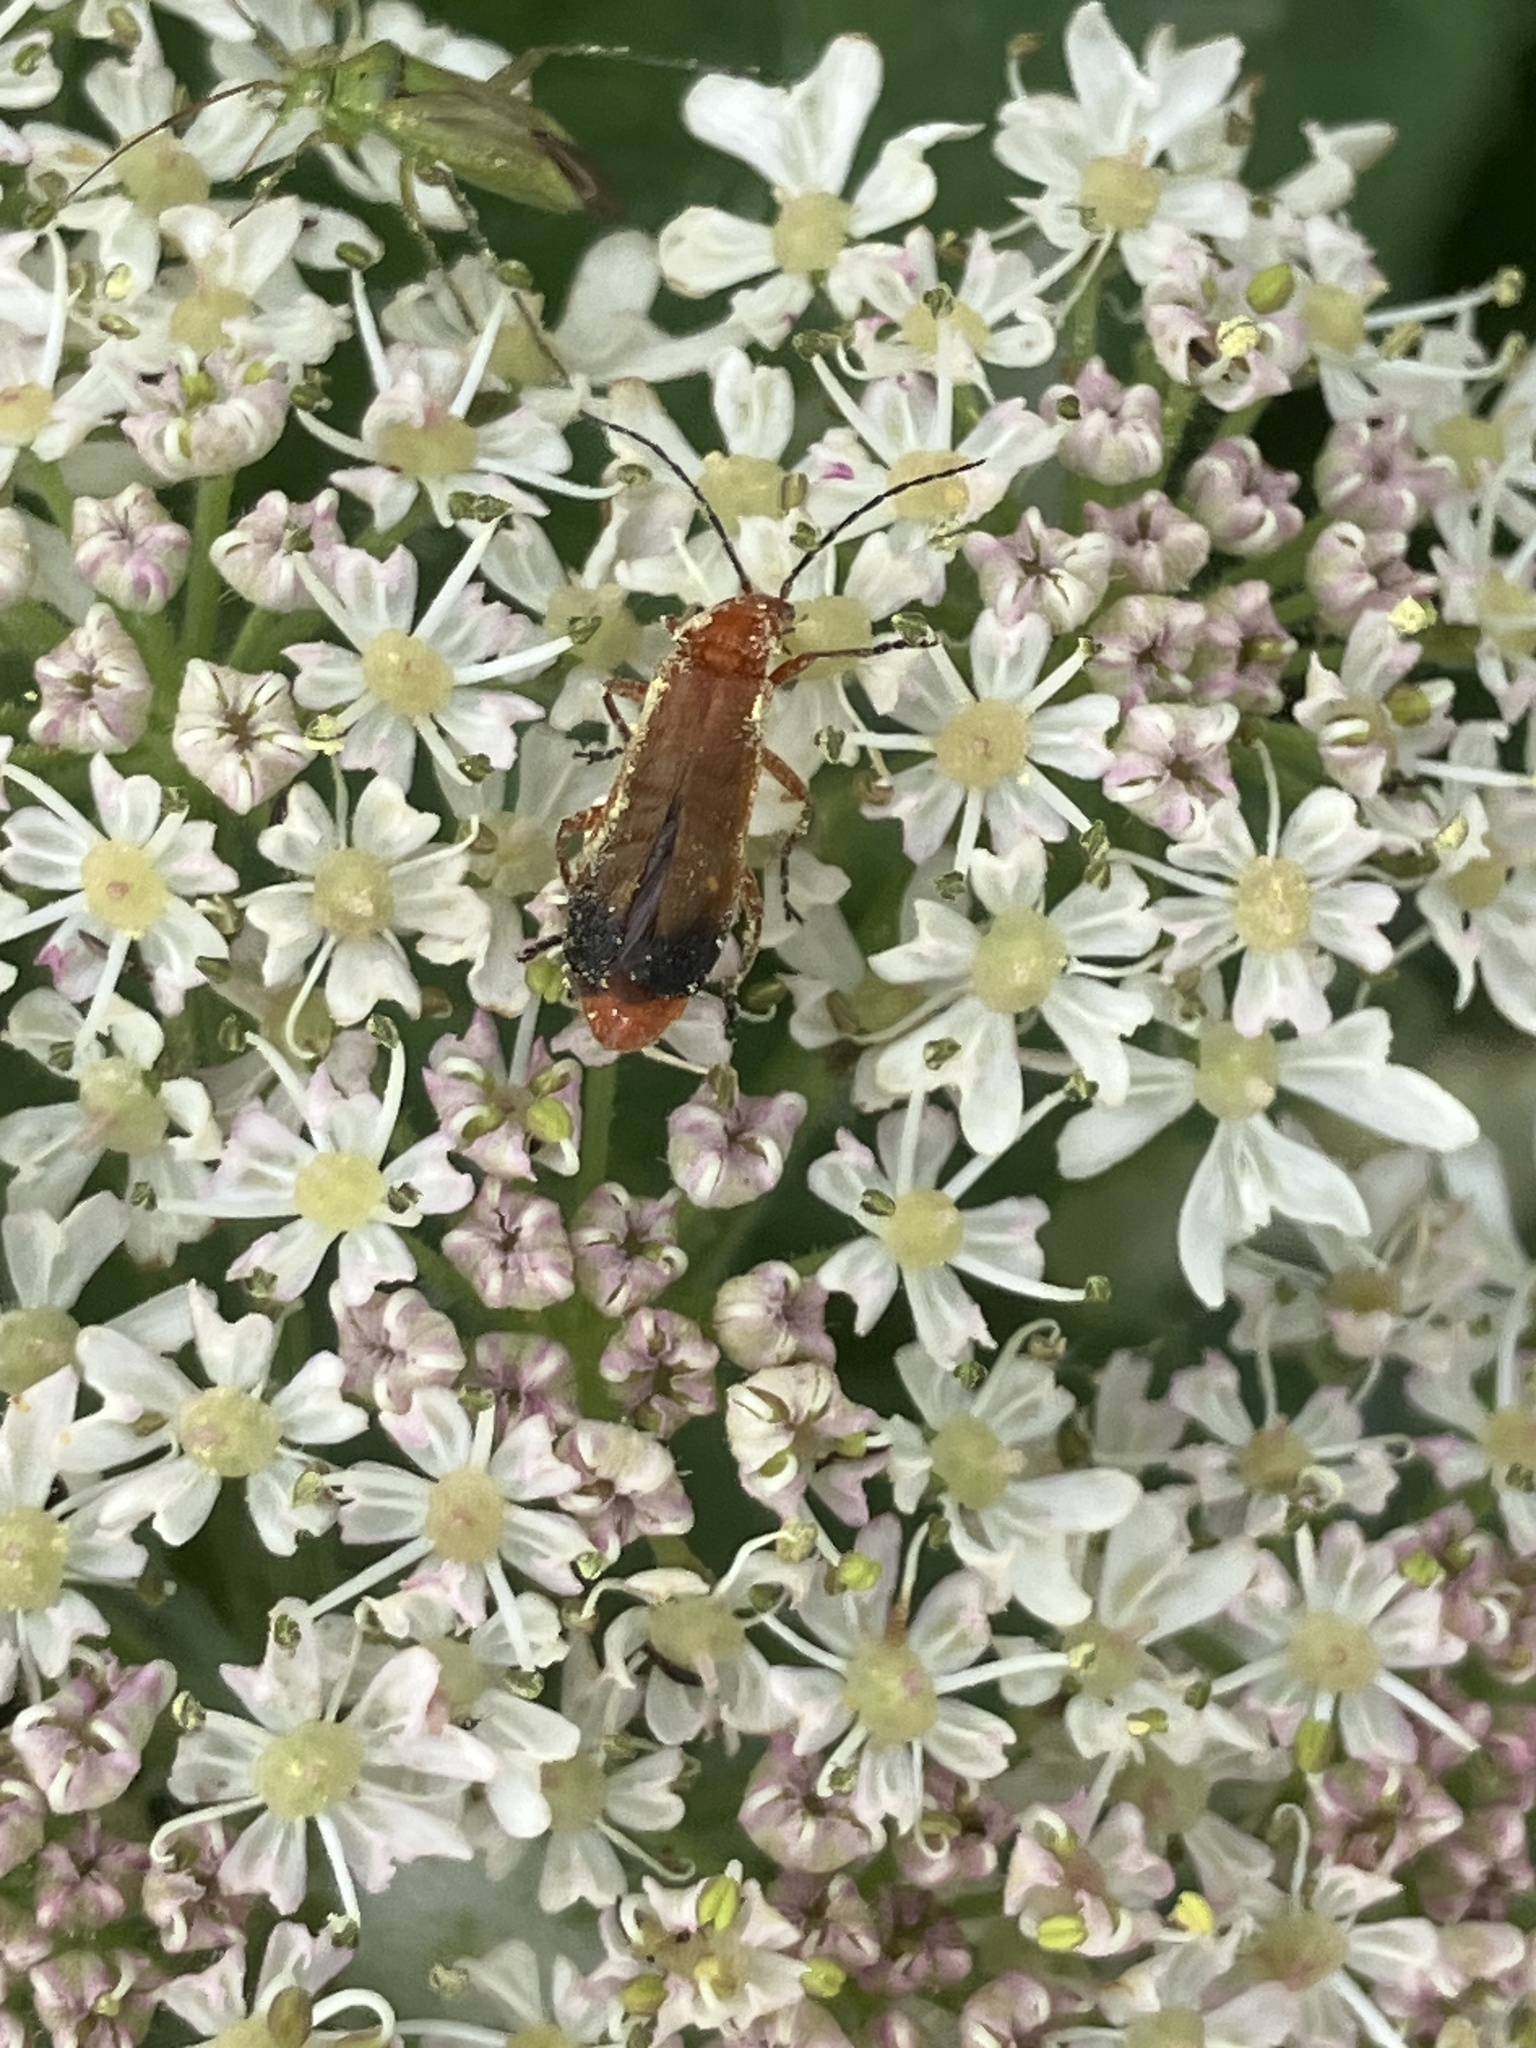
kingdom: Animalia
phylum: Arthropoda
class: Insecta
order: Coleoptera
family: Cantharidae
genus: Rhagonycha
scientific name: Rhagonycha fulva
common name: Common red soldier beetle
